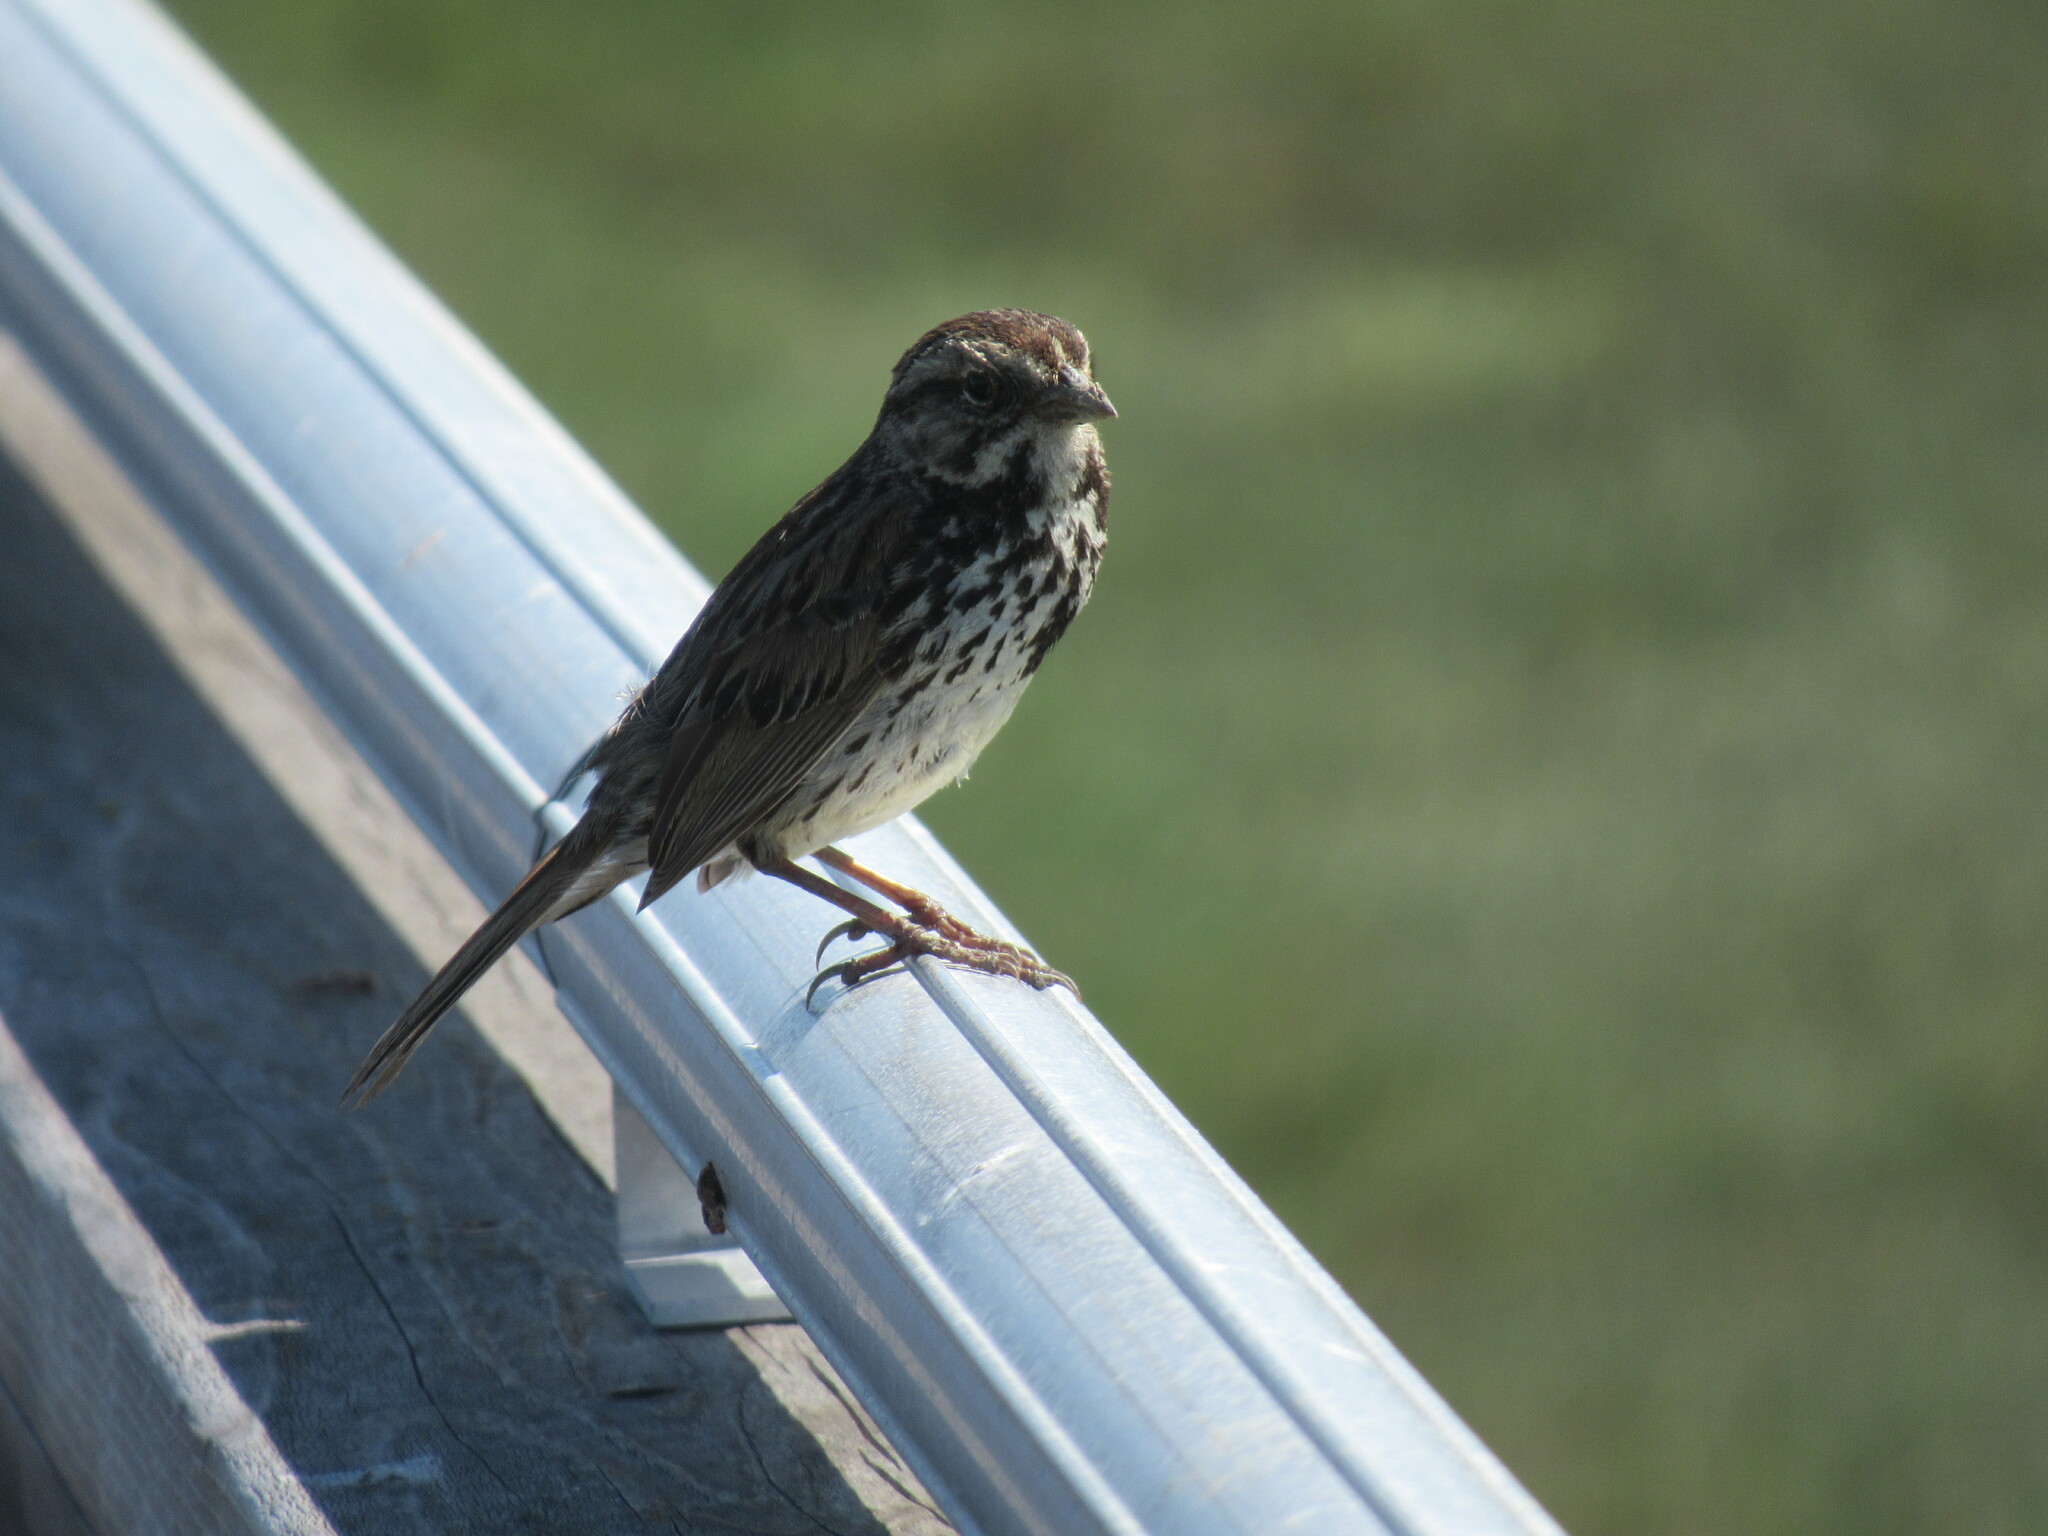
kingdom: Animalia
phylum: Chordata
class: Aves
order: Passeriformes
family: Passerellidae
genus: Melospiza
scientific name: Melospiza melodia
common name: Song sparrow
